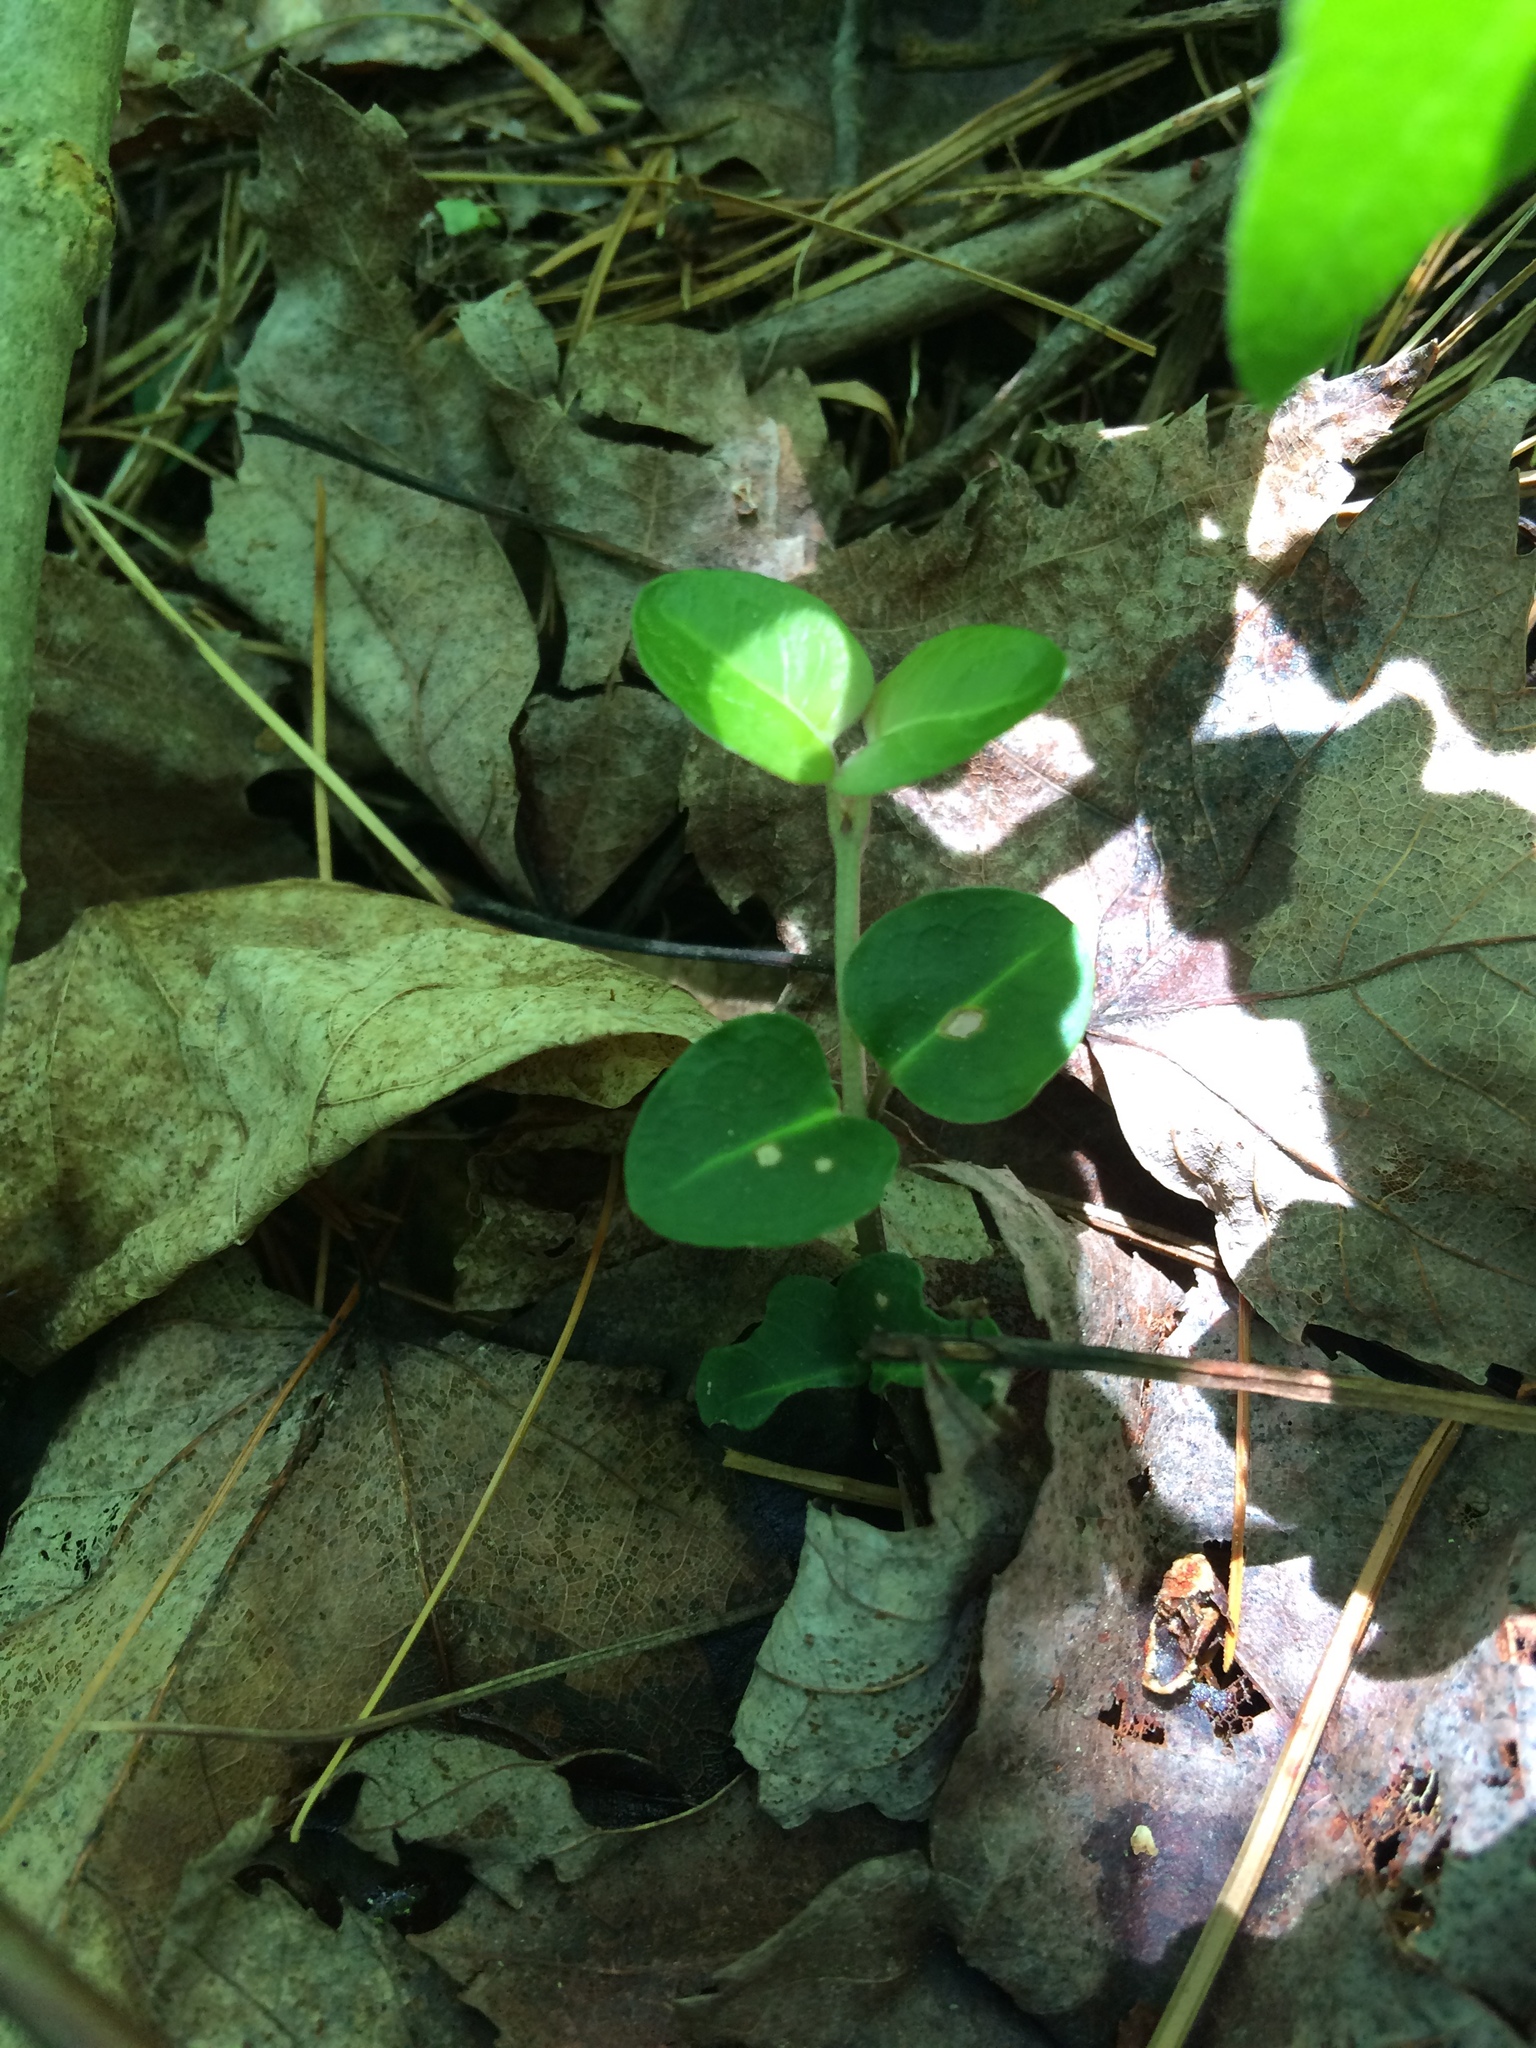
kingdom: Plantae
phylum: Tracheophyta
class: Magnoliopsida
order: Gentianales
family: Rubiaceae
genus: Mitchella
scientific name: Mitchella repens
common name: Partridge-berry
